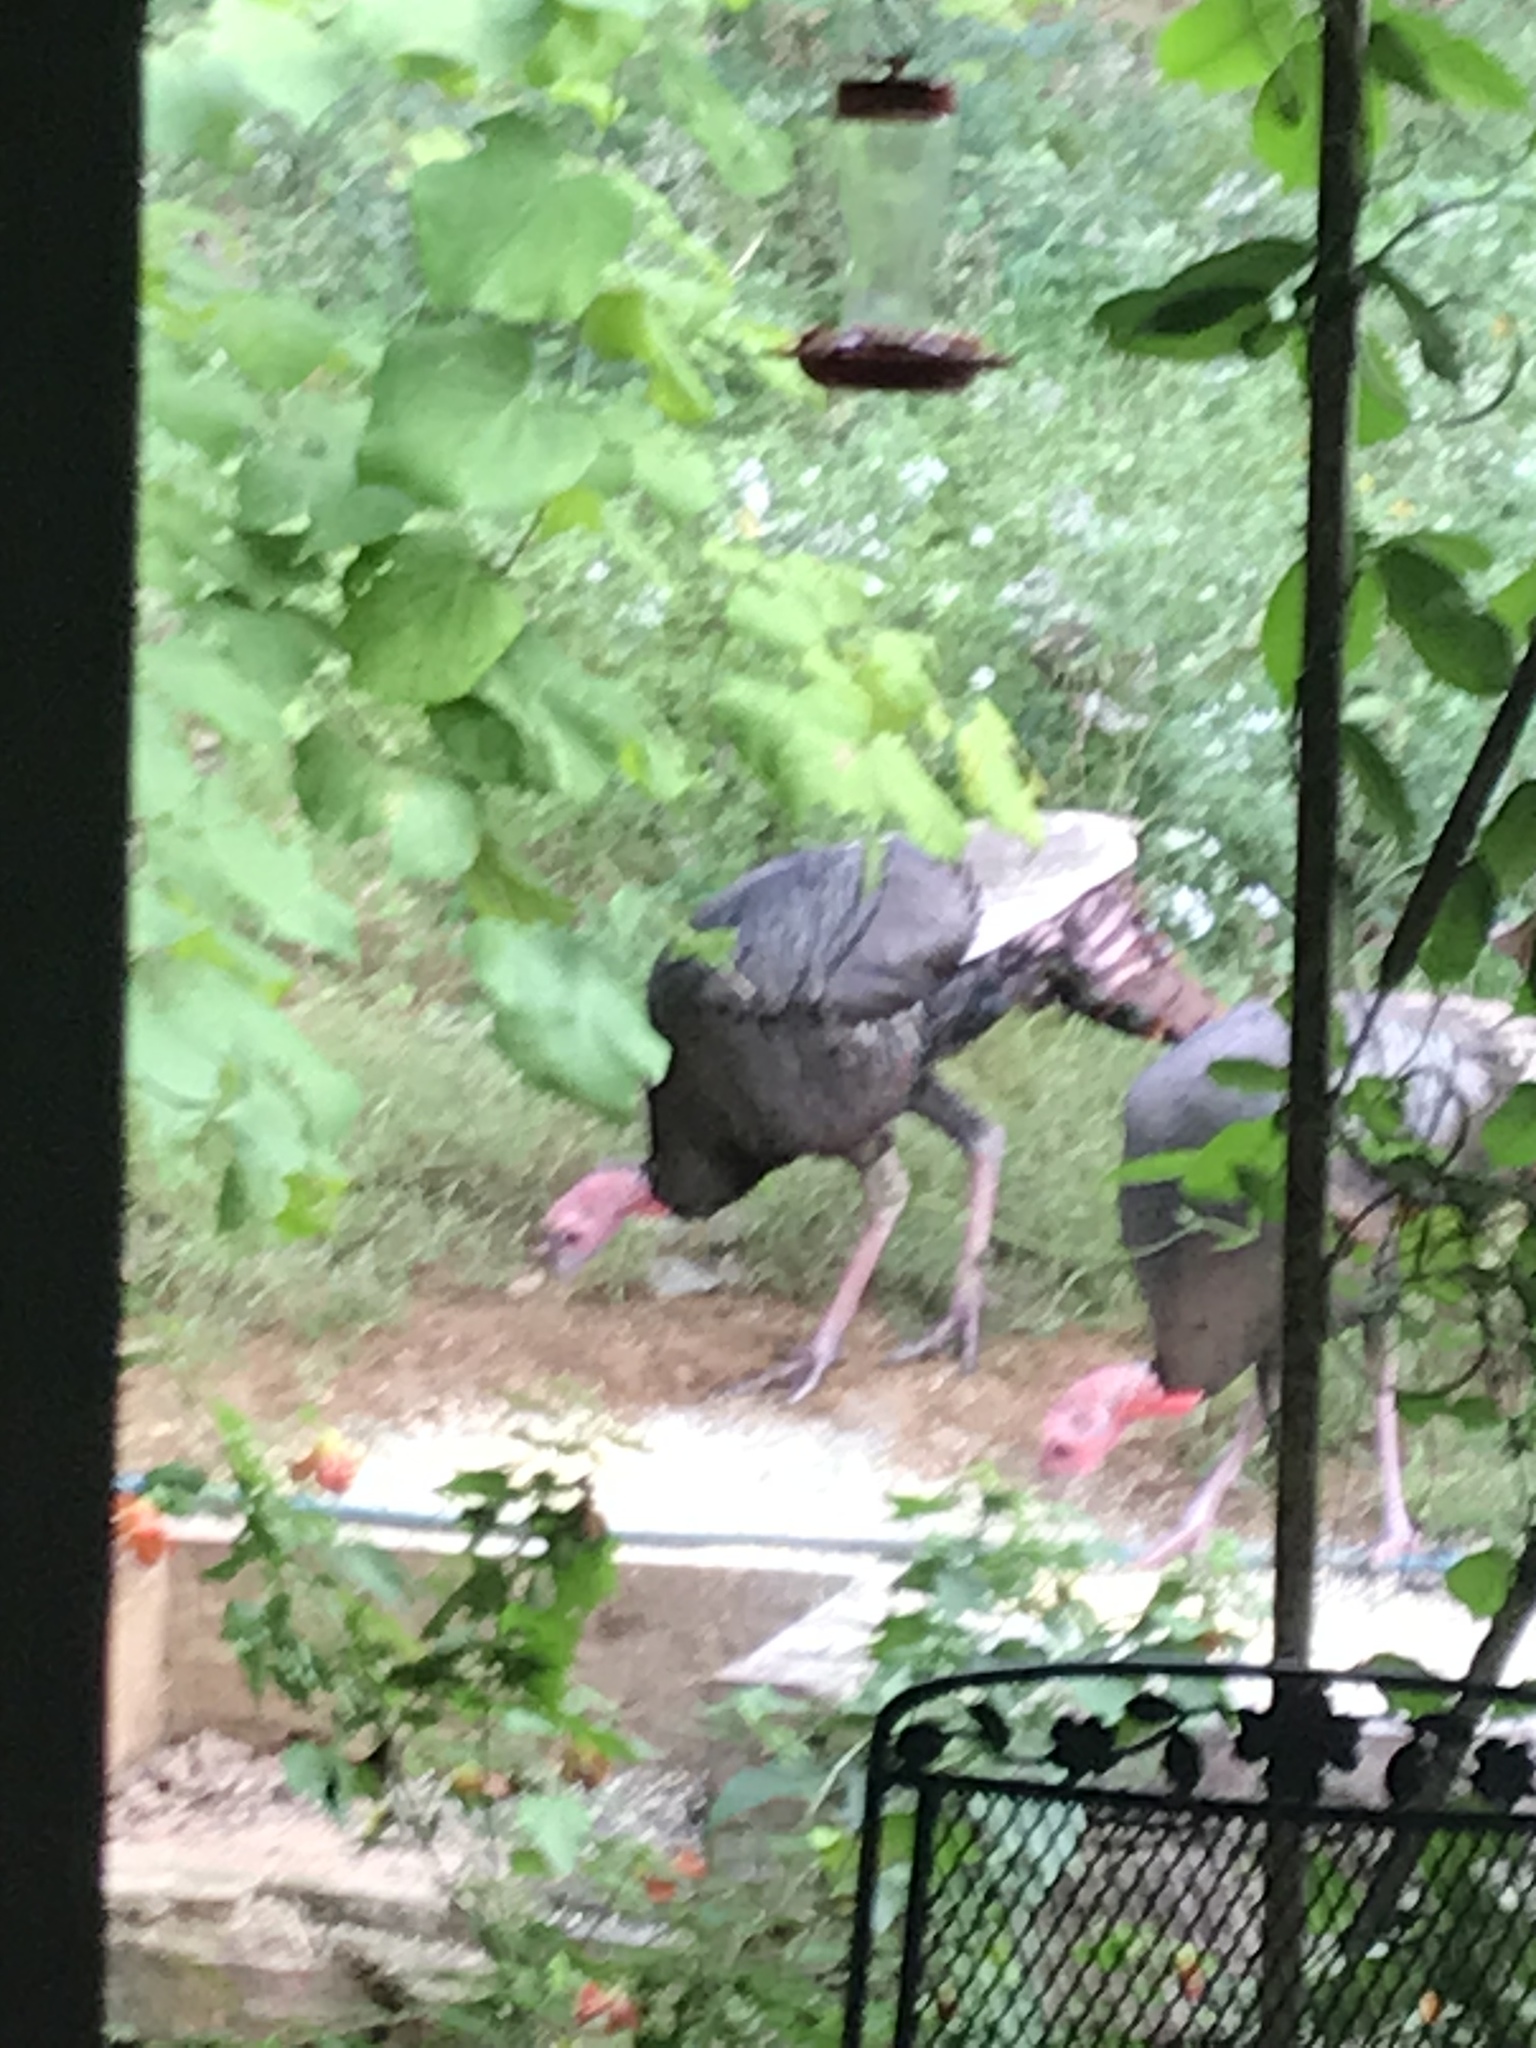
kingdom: Animalia
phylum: Chordata
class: Aves
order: Galliformes
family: Phasianidae
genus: Meleagris
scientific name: Meleagris gallopavo
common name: Wild turkey
